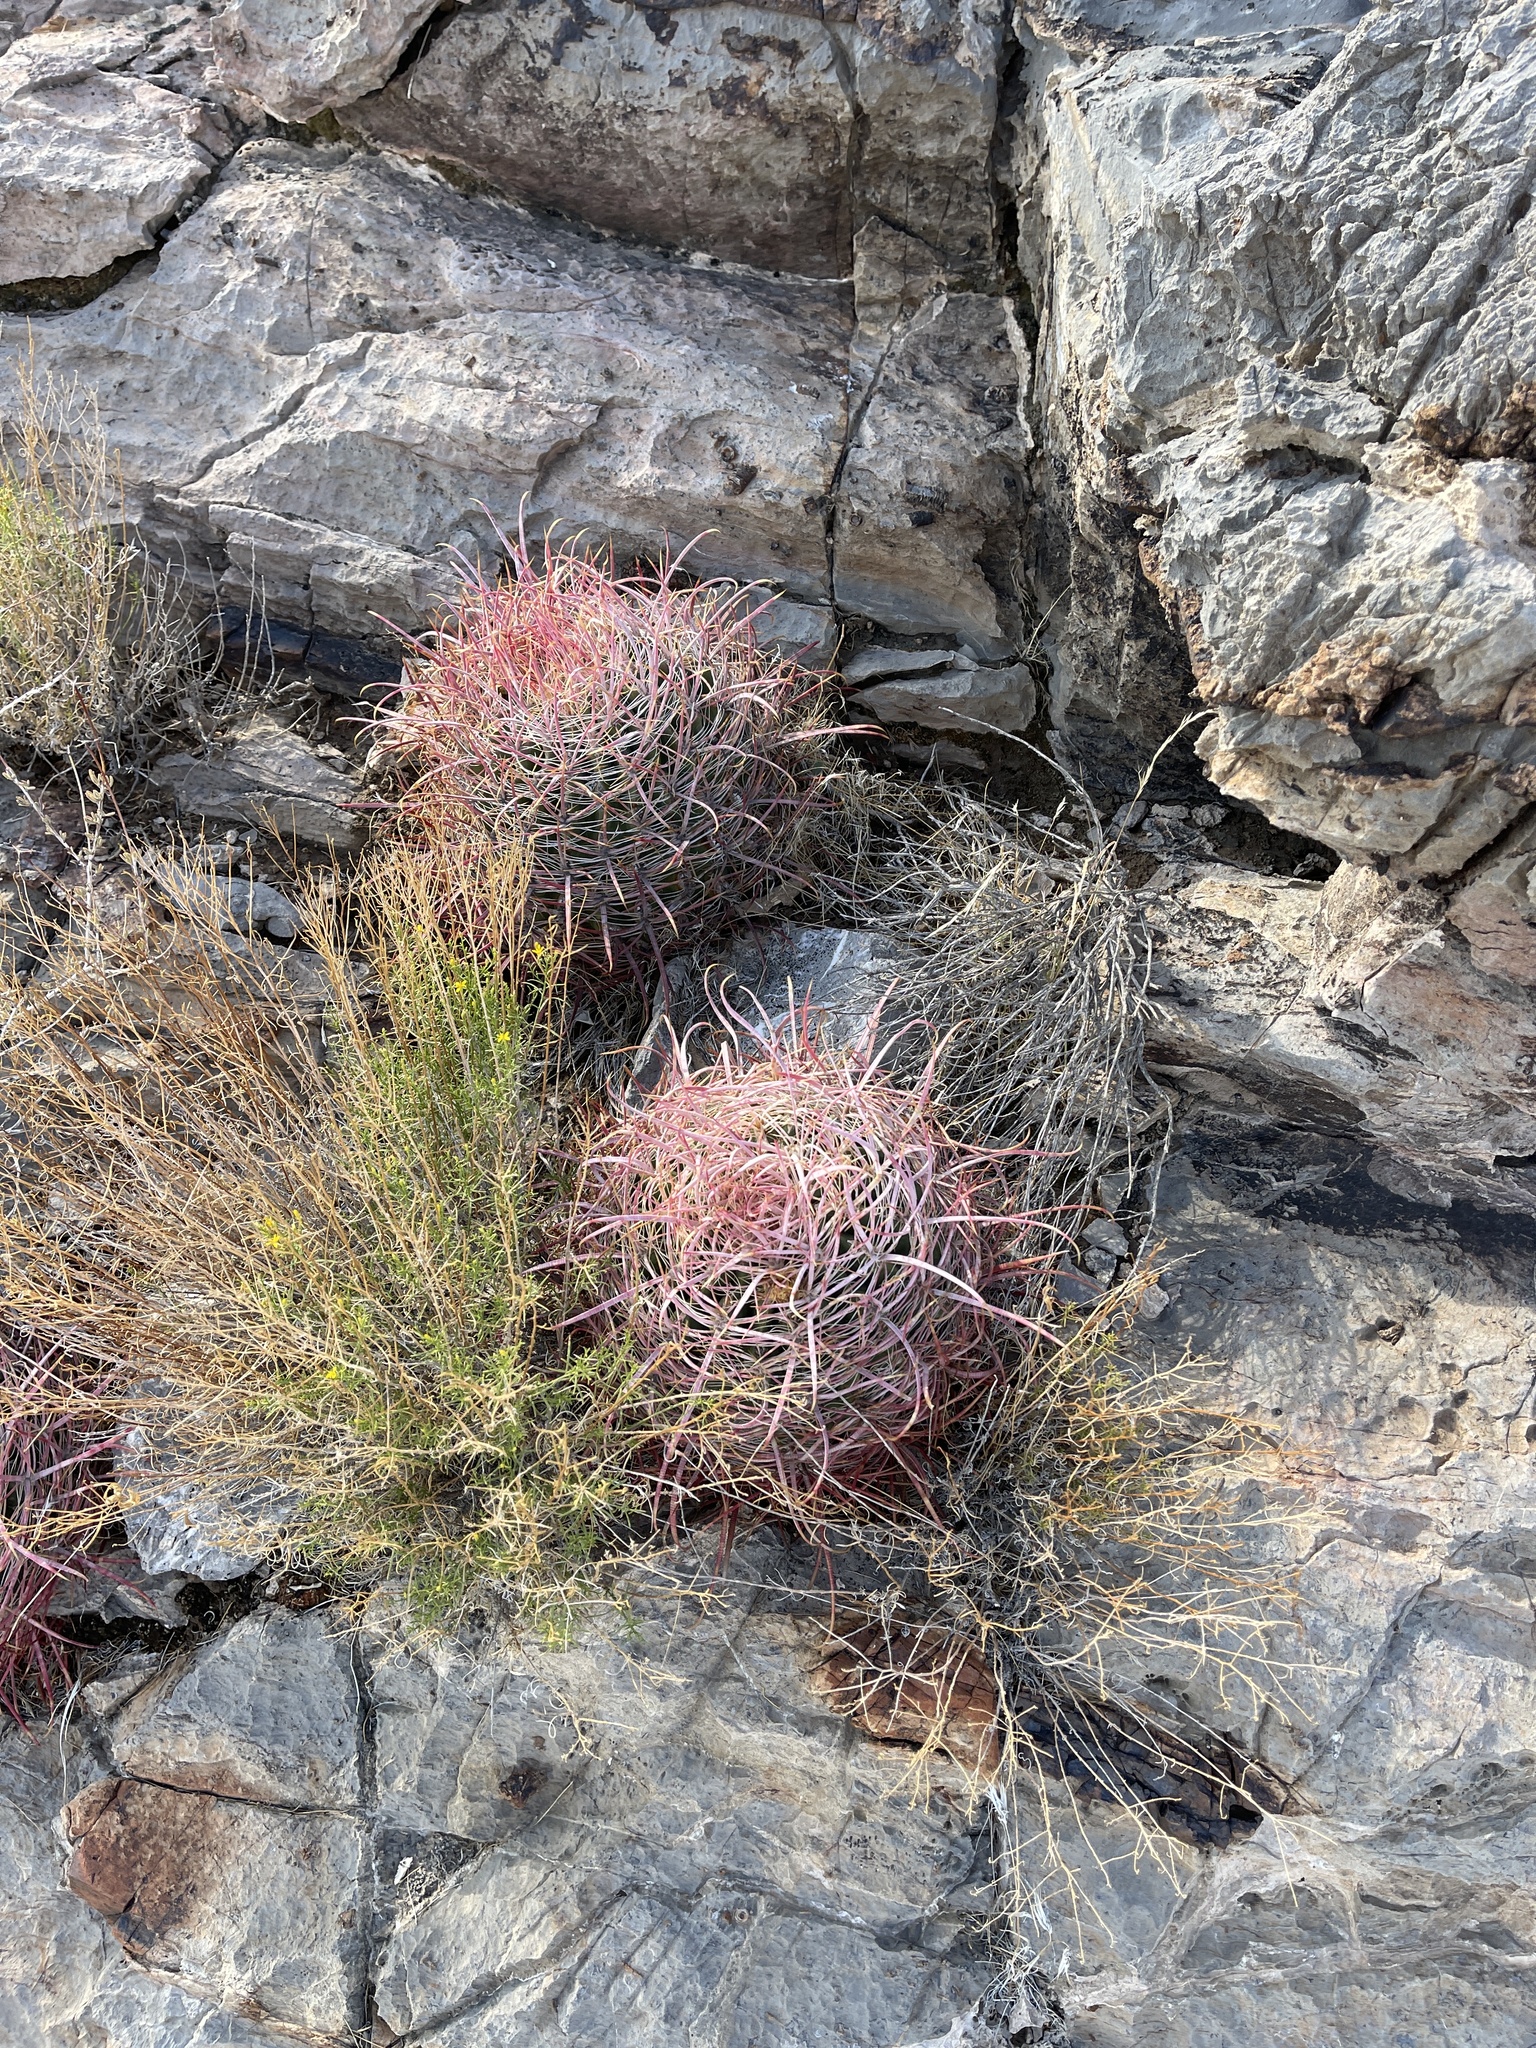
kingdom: Plantae
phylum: Tracheophyta
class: Magnoliopsida
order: Caryophyllales
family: Cactaceae
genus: Echinocactus
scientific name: Echinocactus polycephalus
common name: Cottontop cactus
